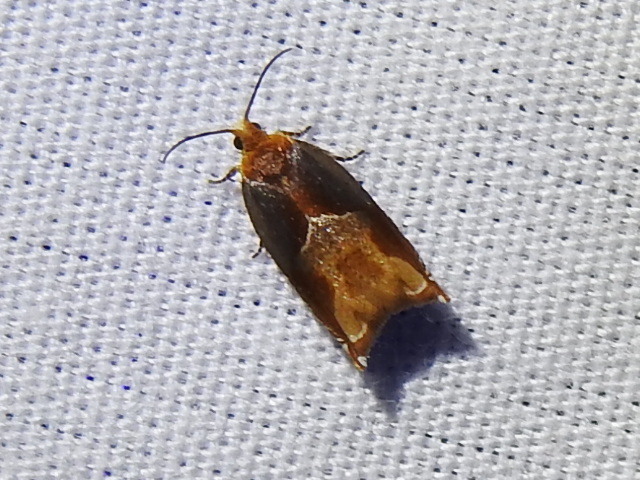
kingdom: Animalia
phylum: Arthropoda
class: Insecta
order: Lepidoptera
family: Tortricidae
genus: Ancylis
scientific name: Ancylis divisana
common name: Two-toned ancylis moth
